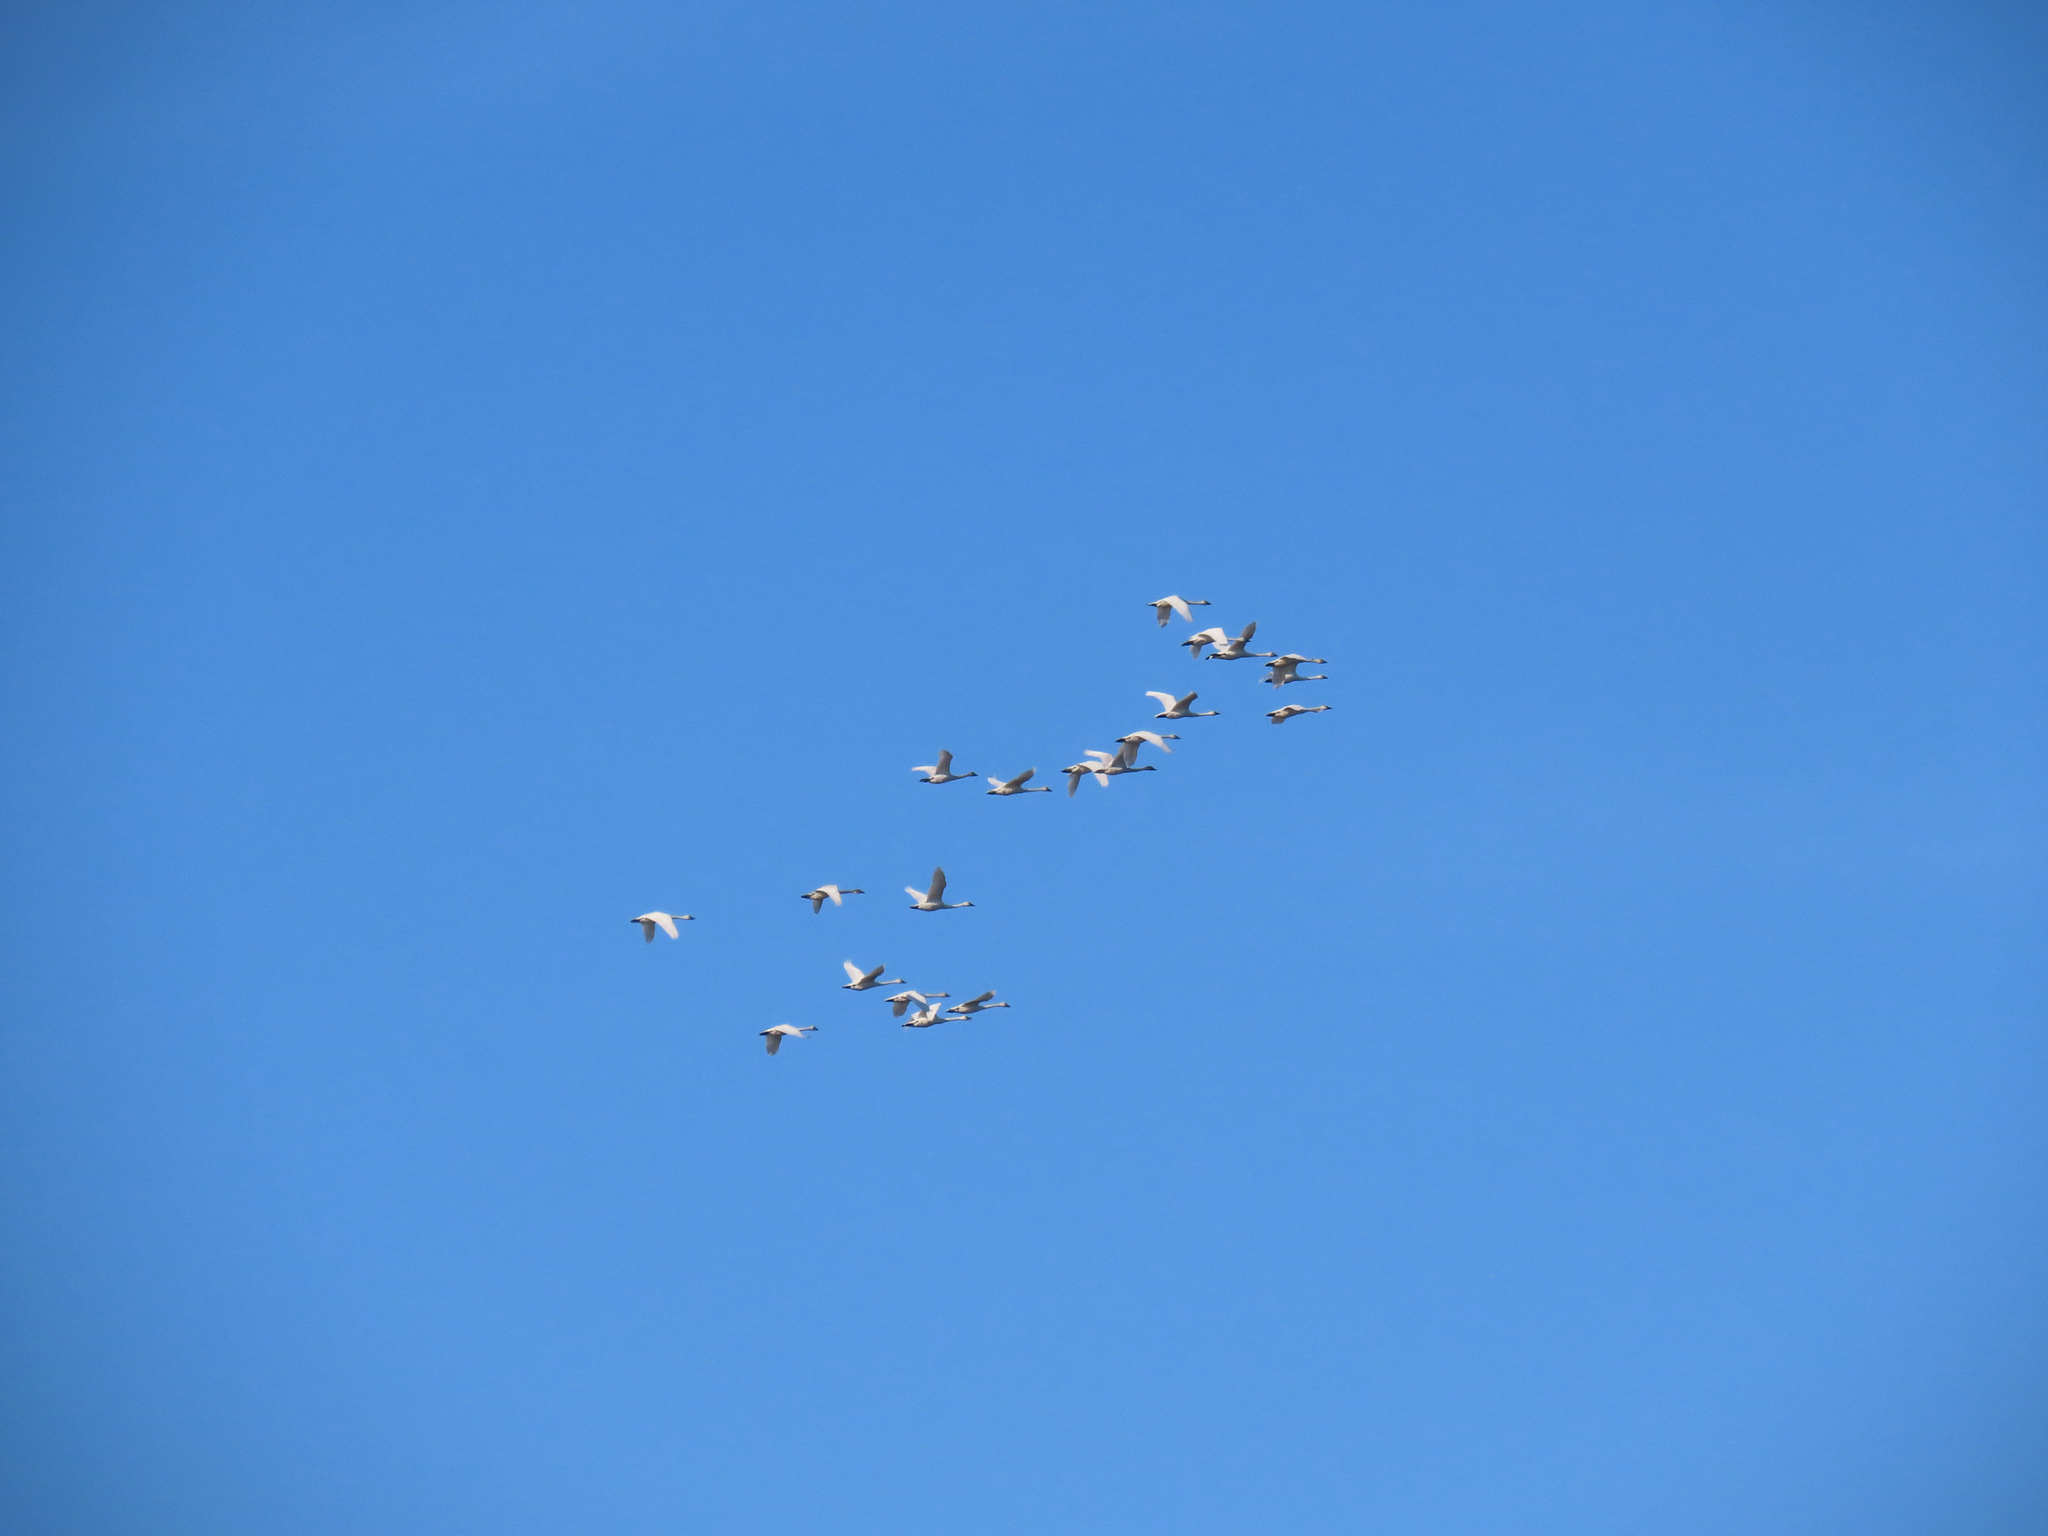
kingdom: Animalia
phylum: Chordata
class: Aves
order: Anseriformes
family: Anatidae
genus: Cygnus
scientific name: Cygnus columbianus
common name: Tundra swan
